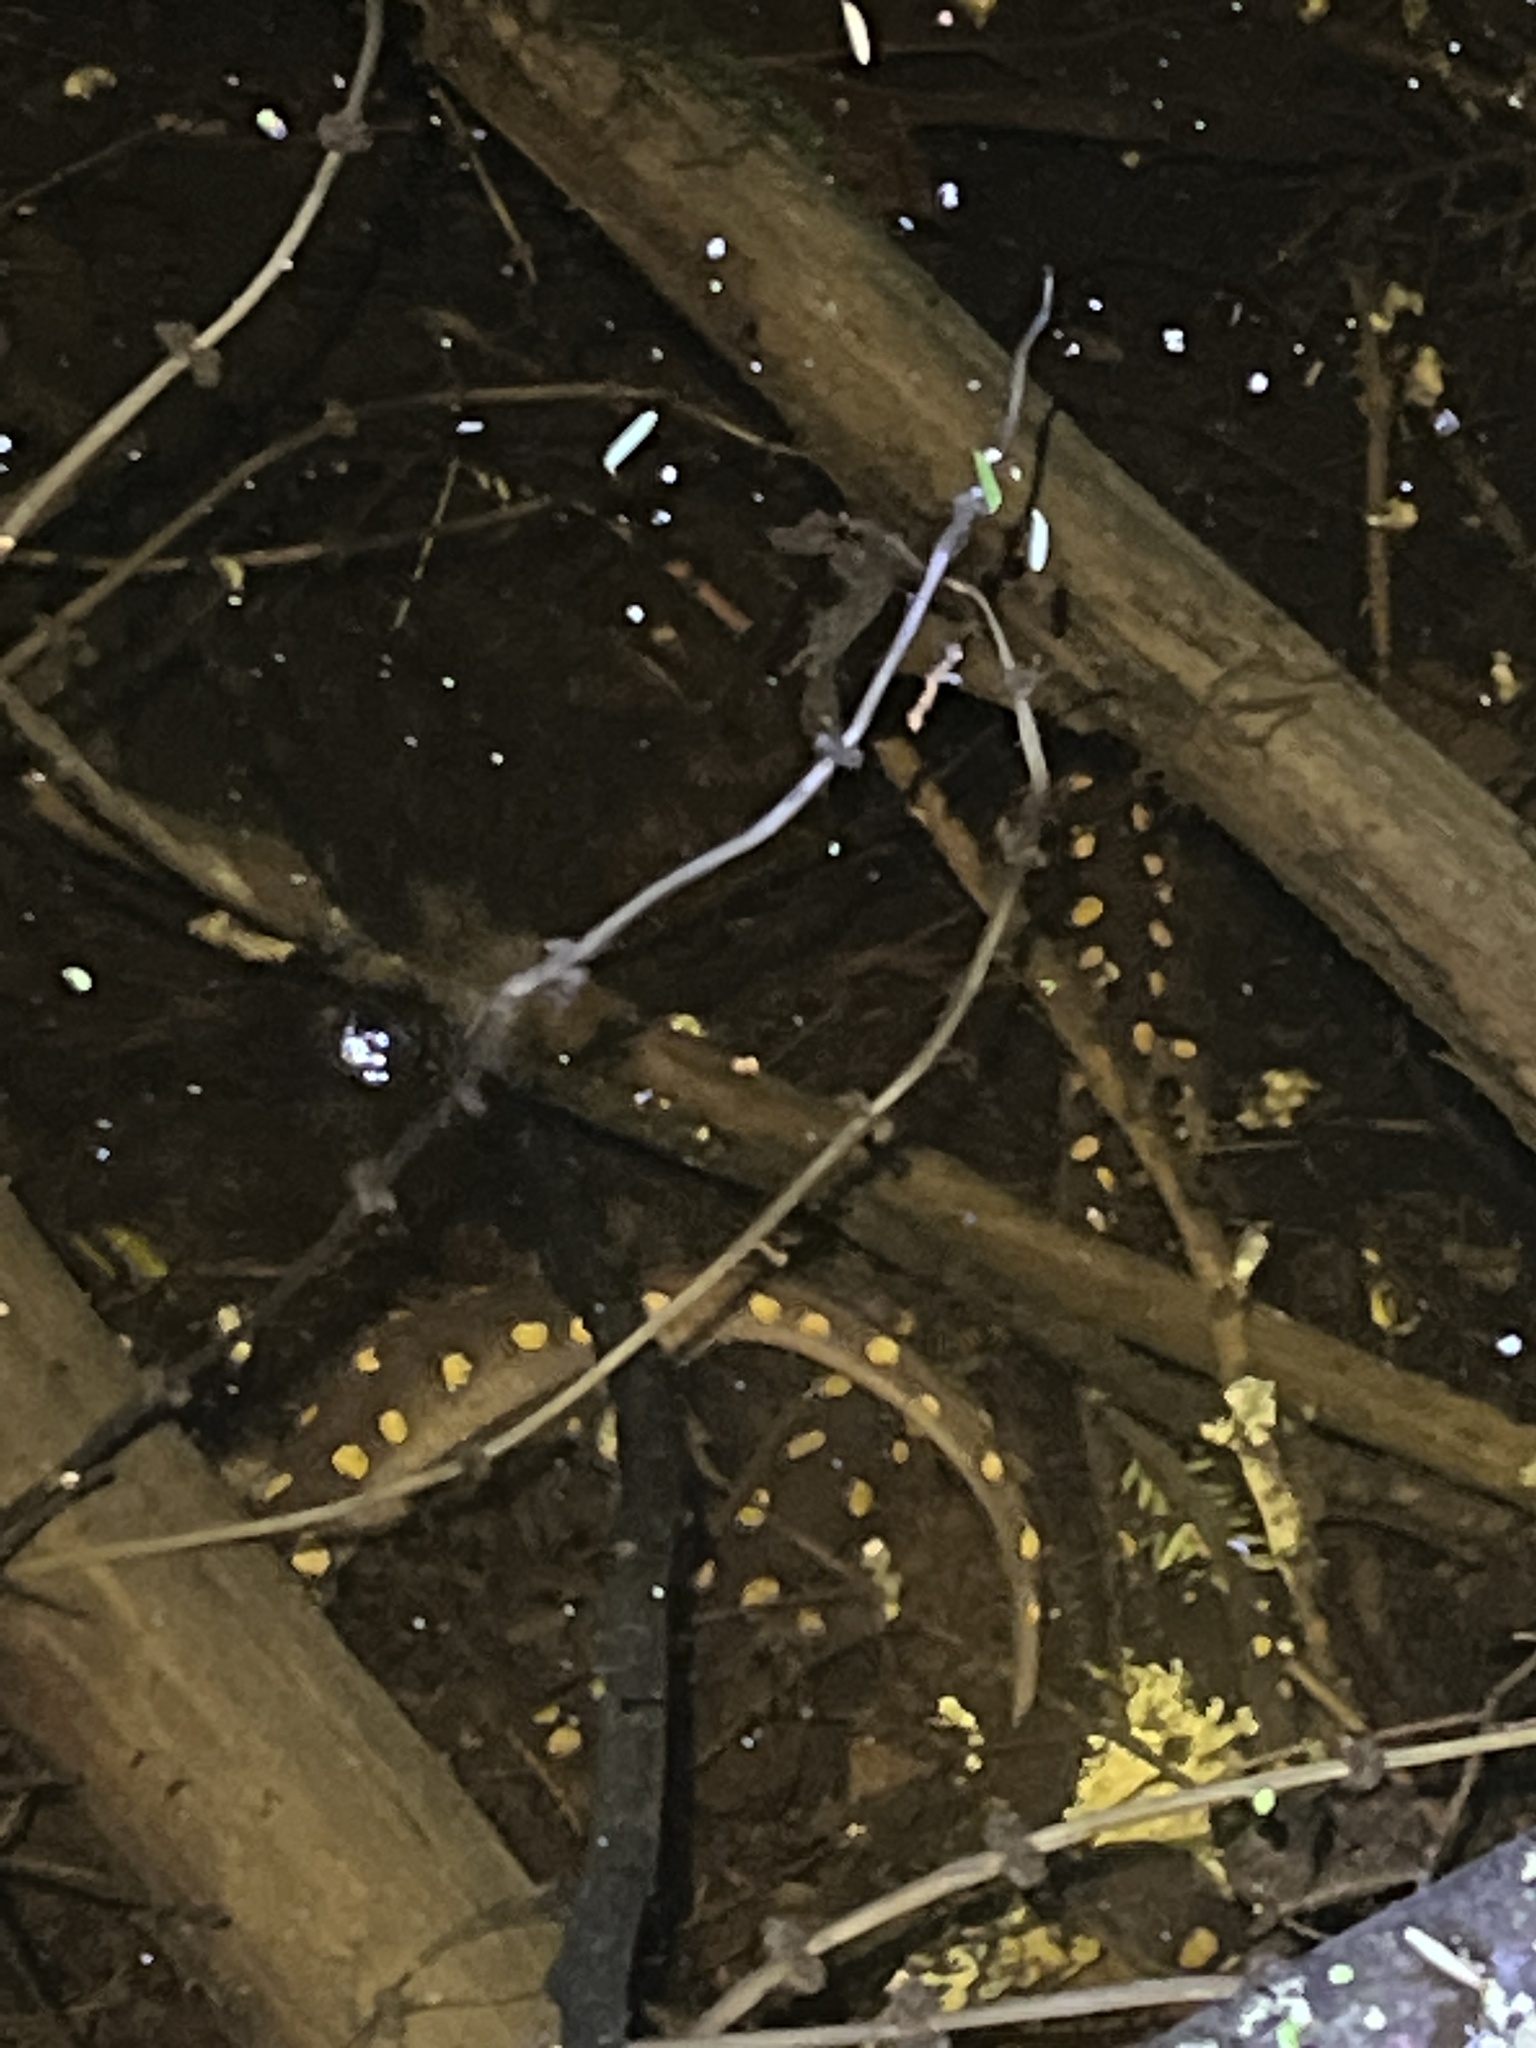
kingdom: Animalia
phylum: Chordata
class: Amphibia
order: Caudata
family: Ambystomatidae
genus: Ambystoma
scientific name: Ambystoma maculatum
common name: Spotted salamander
